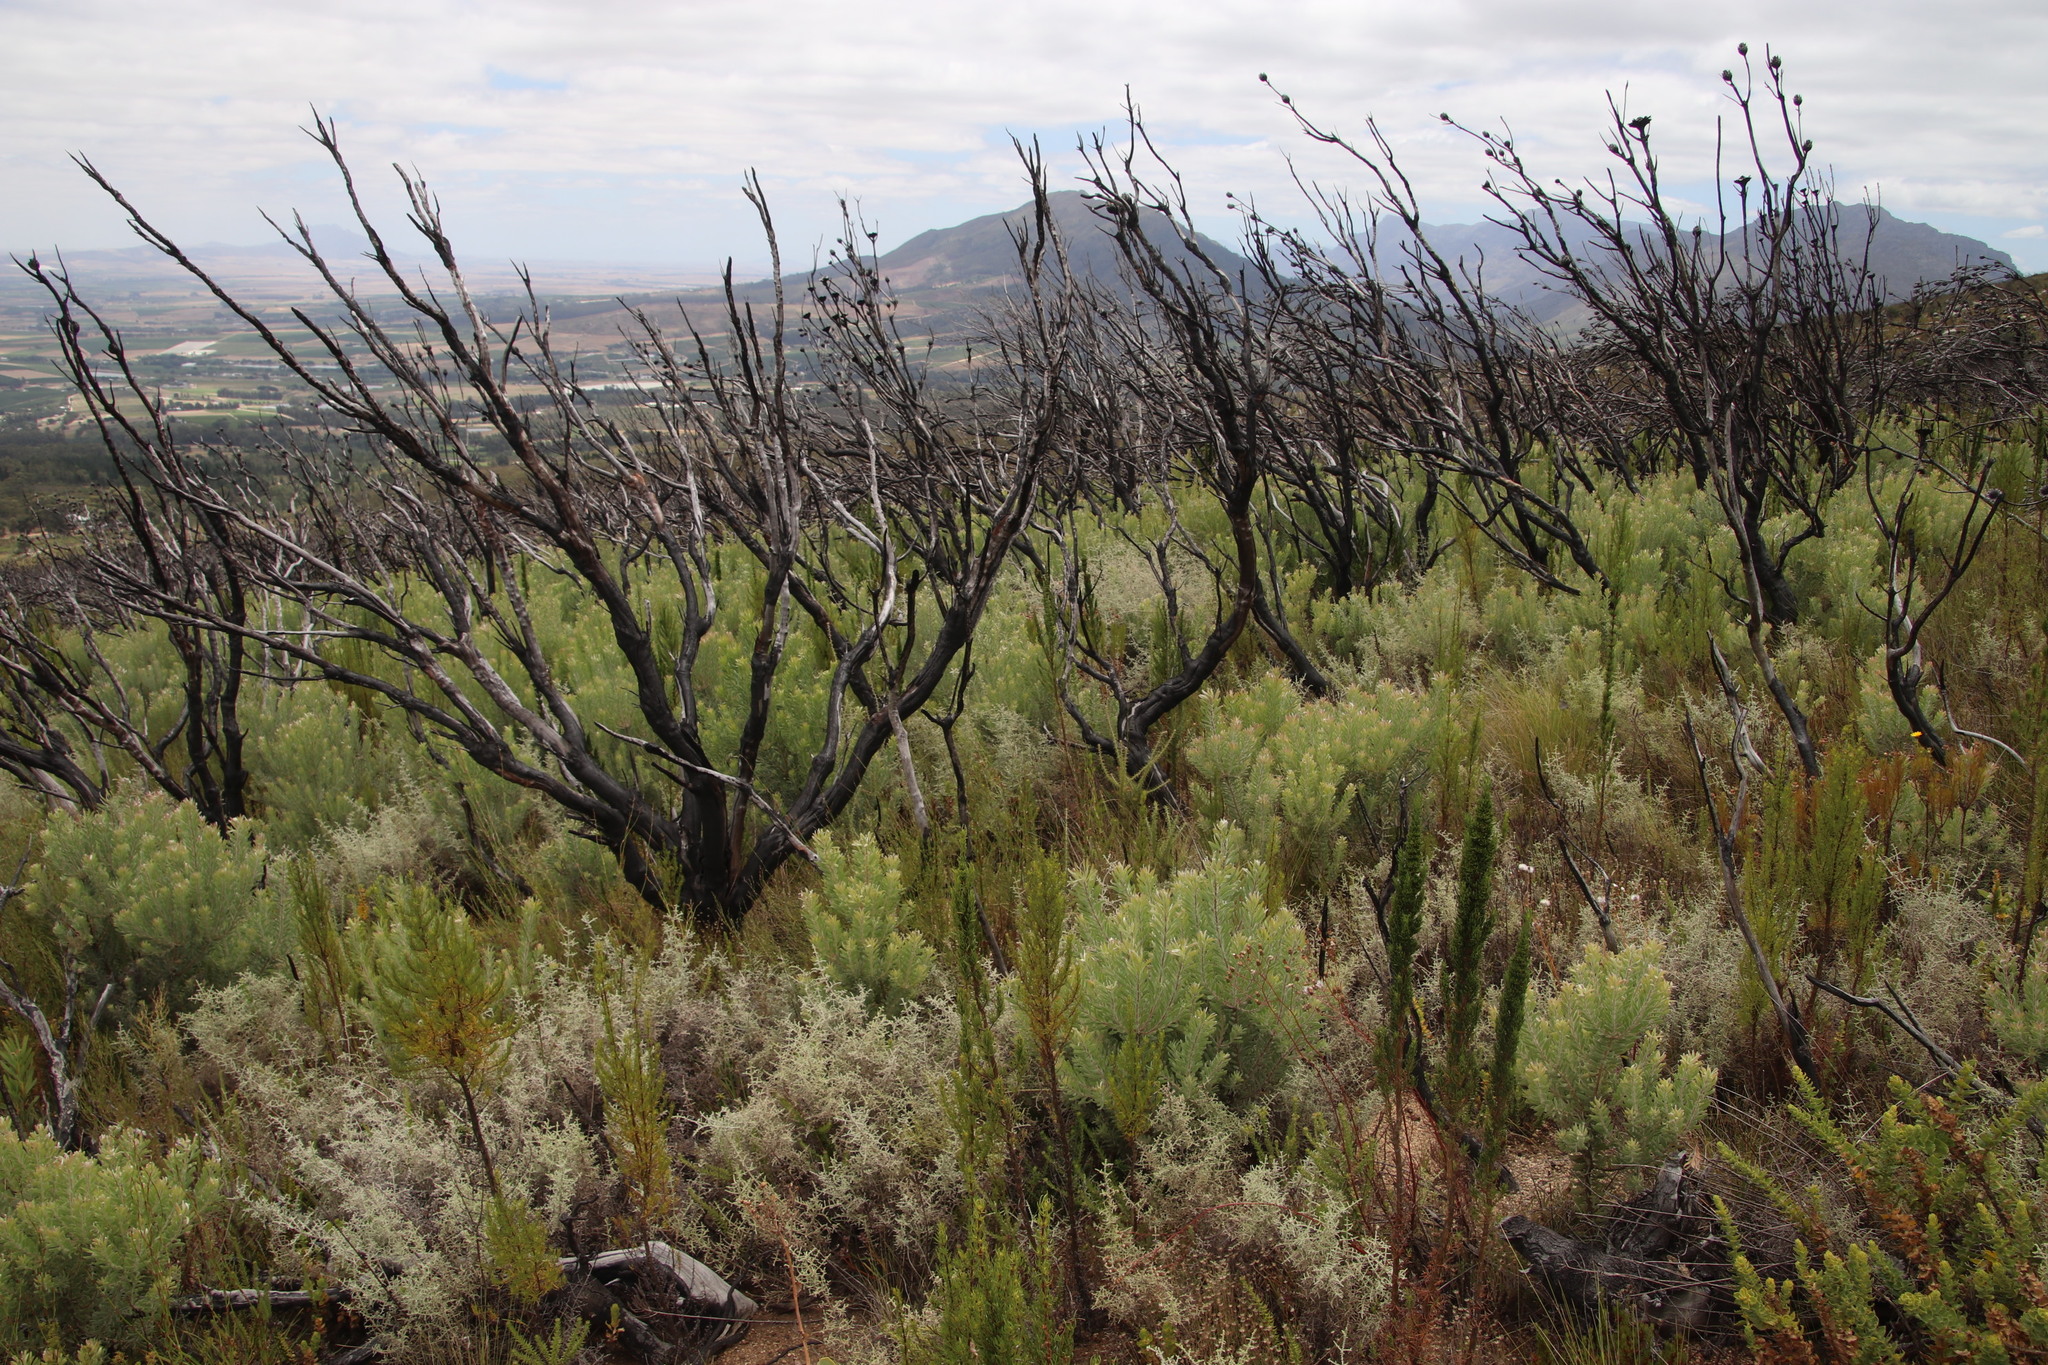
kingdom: Plantae
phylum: Tracheophyta
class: Magnoliopsida
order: Proteales
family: Proteaceae
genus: Leucadendron
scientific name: Leucadendron rubrum
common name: Spinning top
